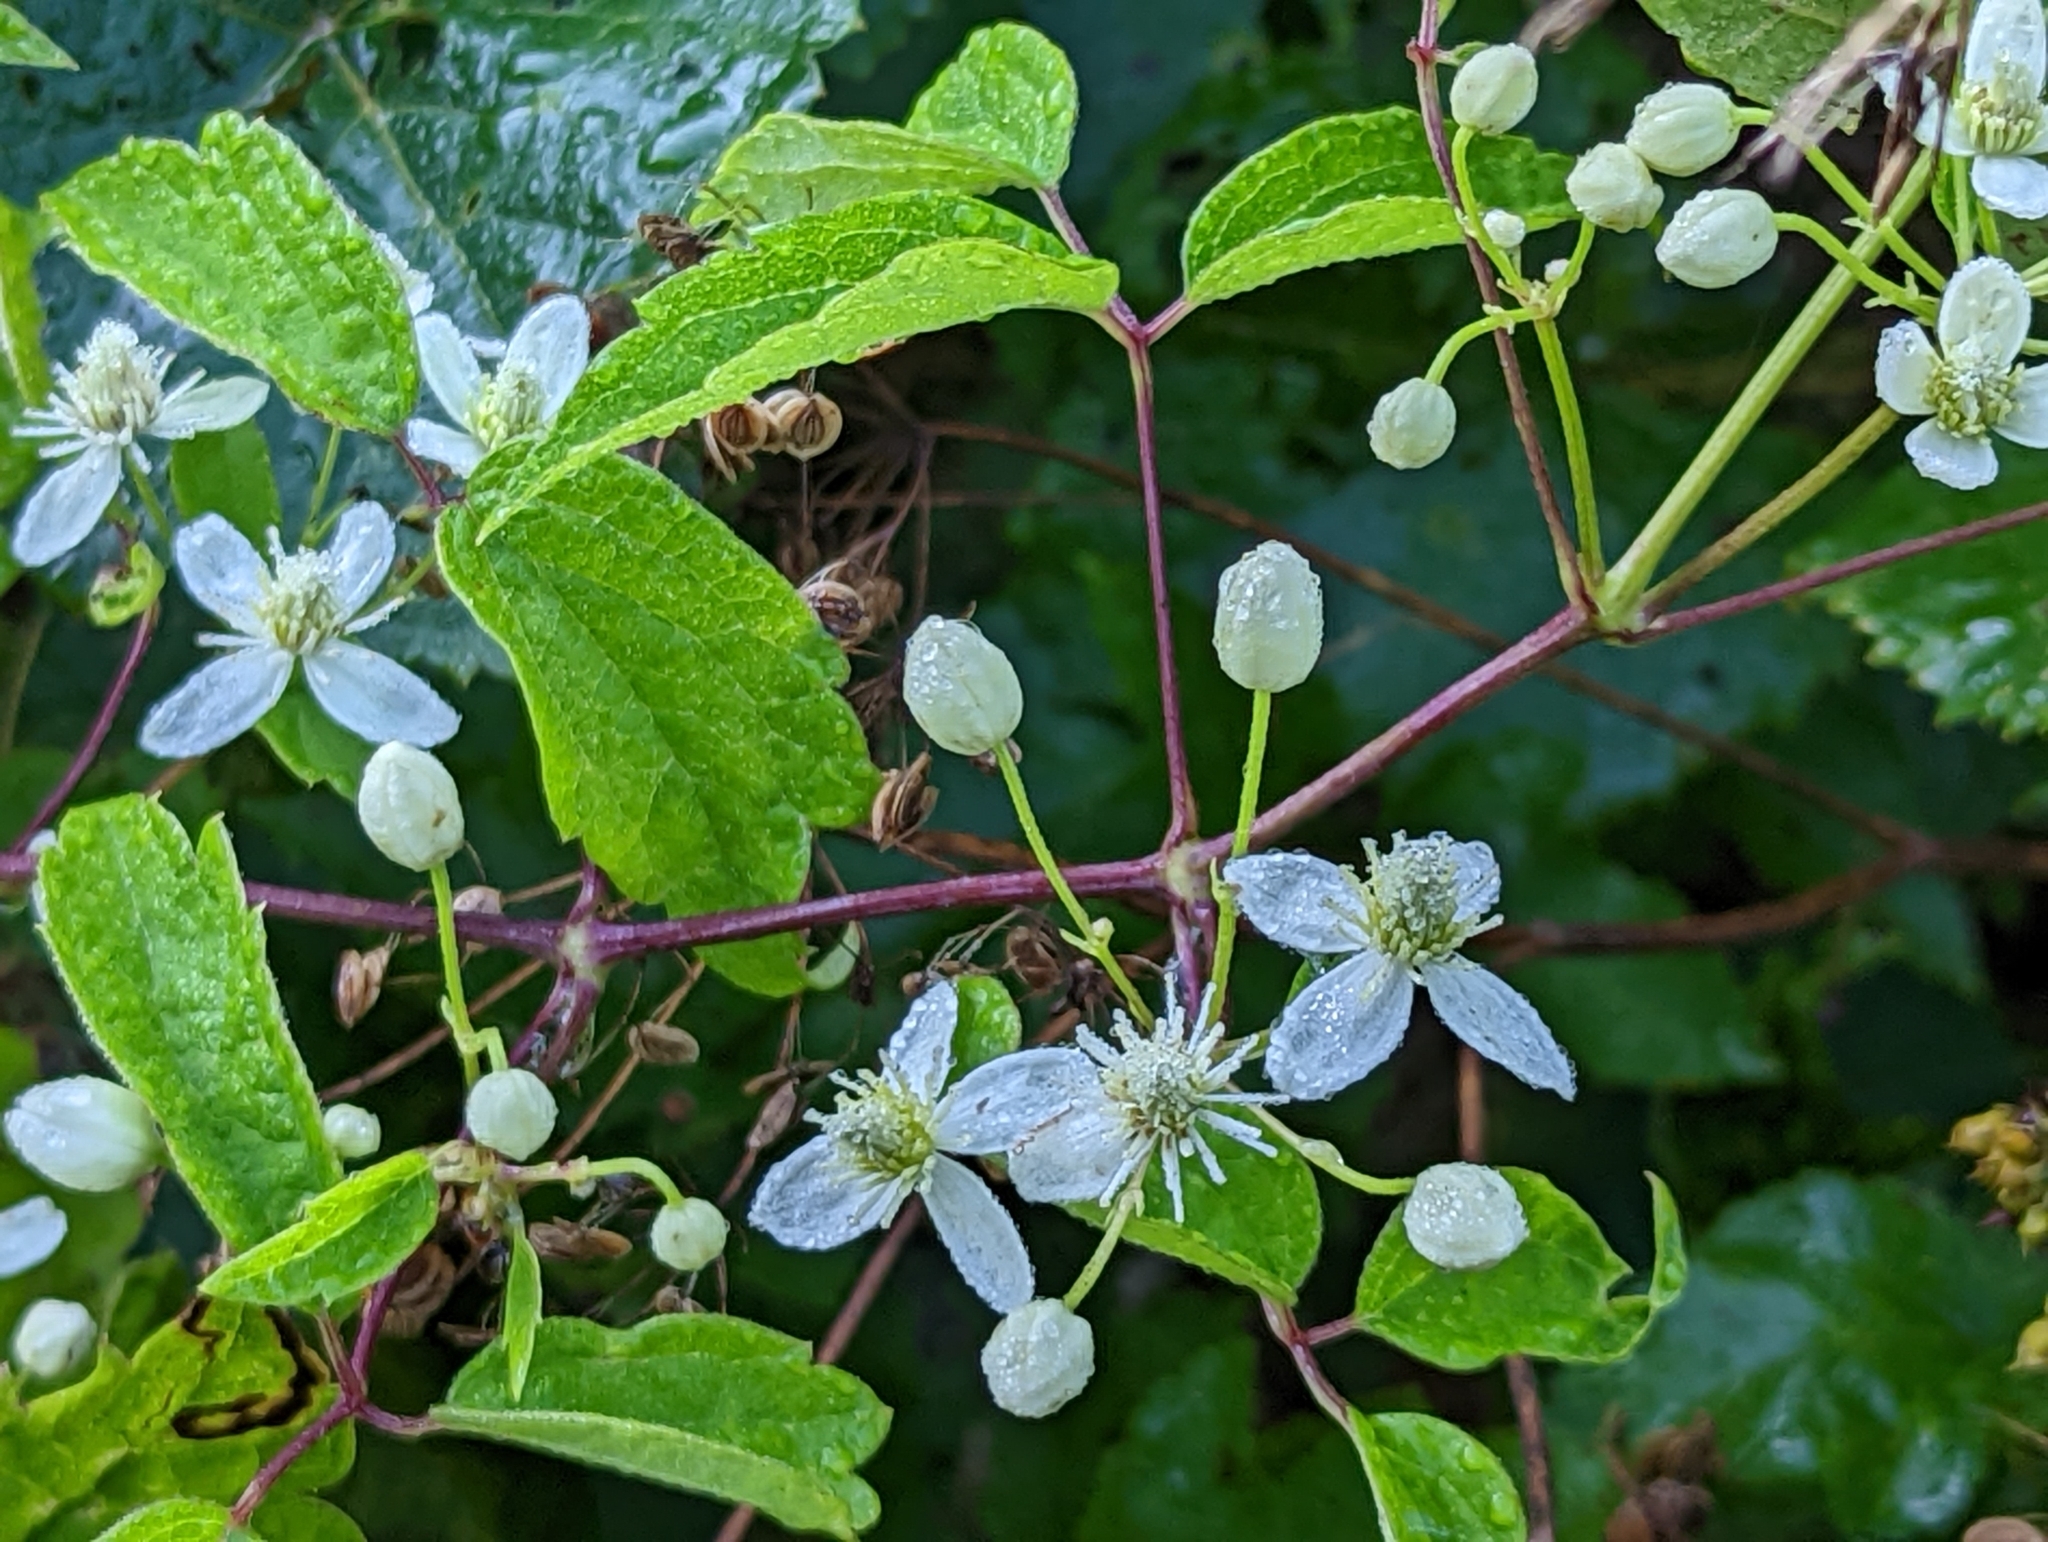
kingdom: Plantae
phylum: Tracheophyta
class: Magnoliopsida
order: Ranunculales
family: Ranunculaceae
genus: Clematis
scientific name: Clematis virginiana
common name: Virgin's-bower
